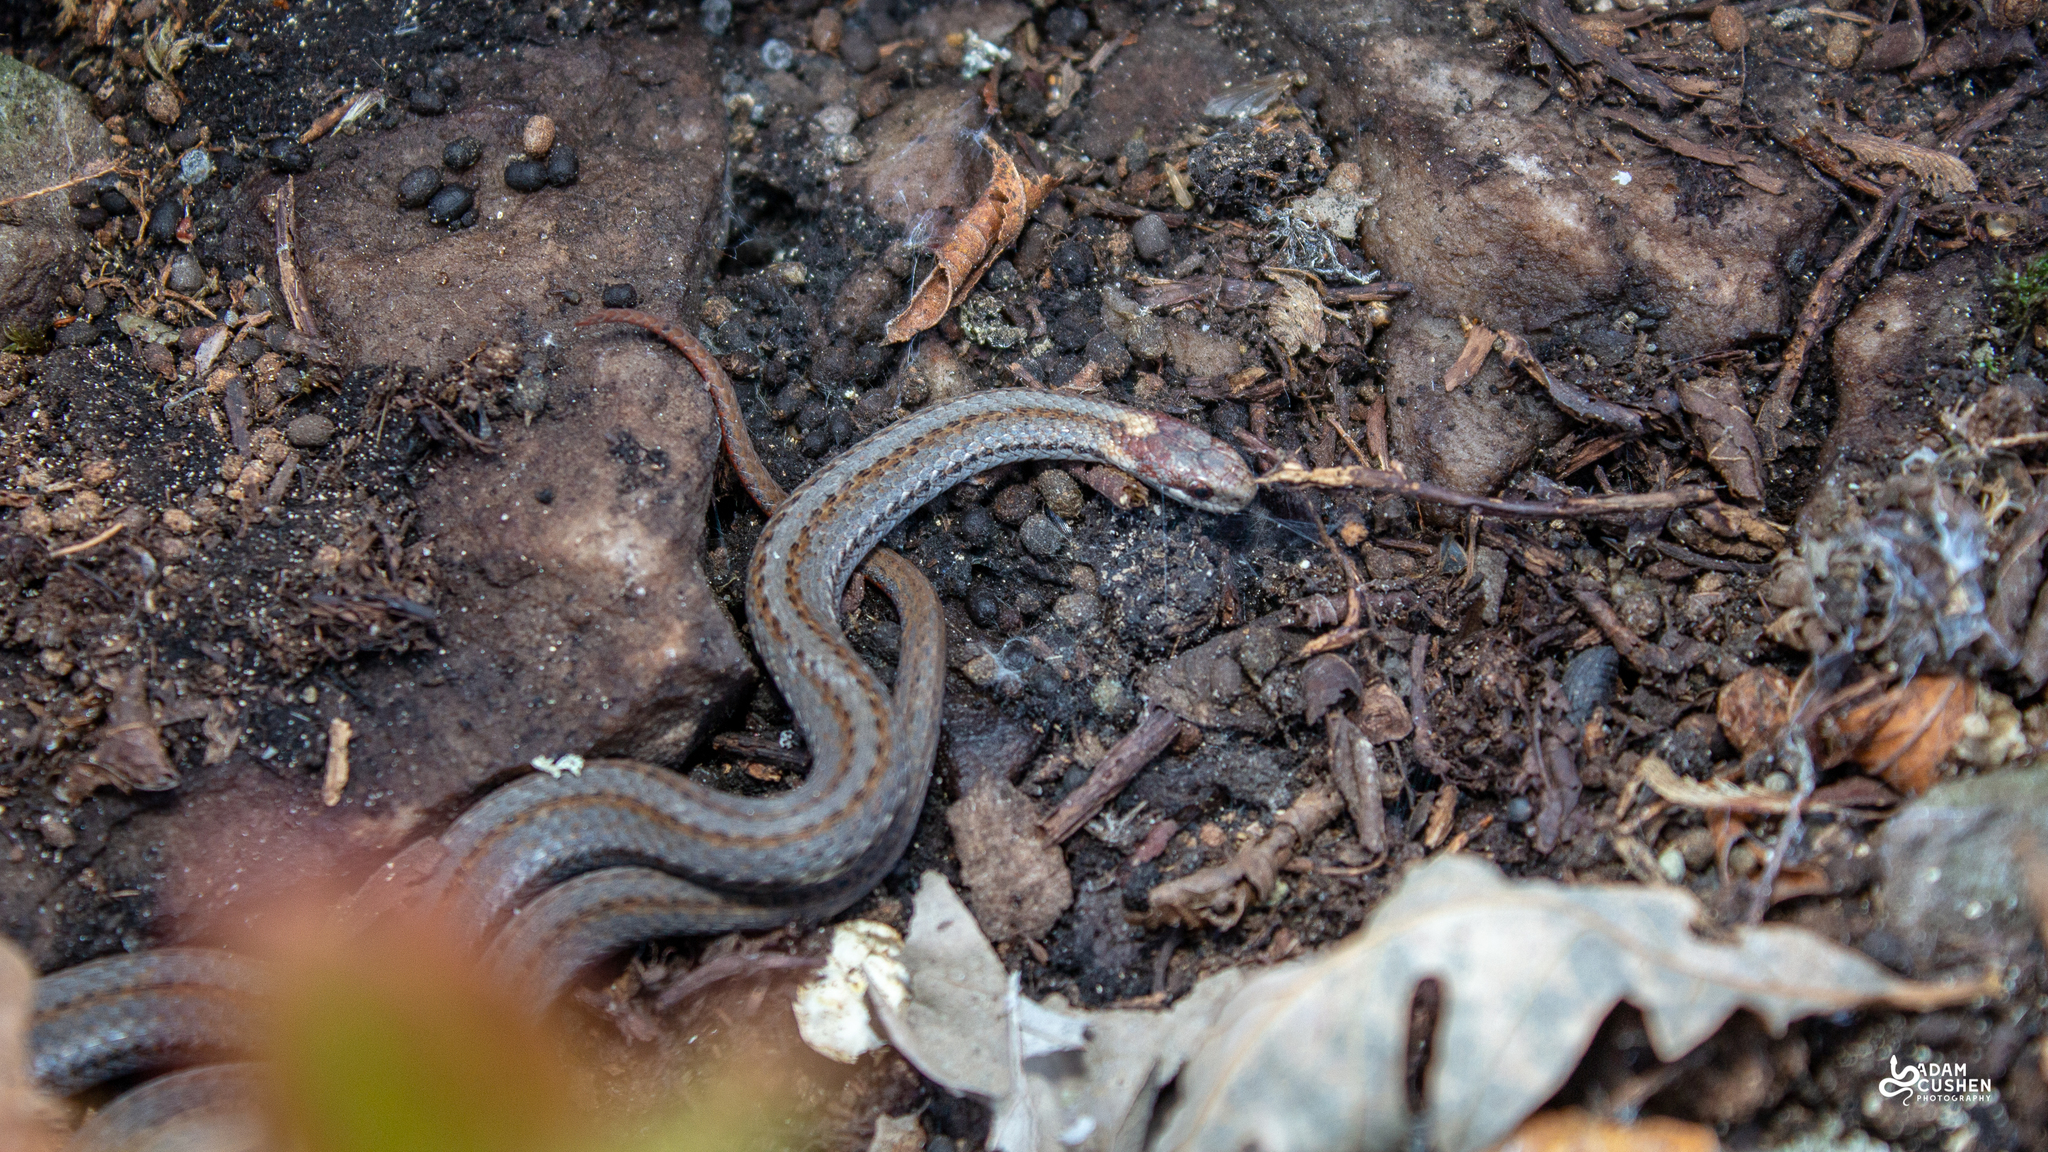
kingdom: Animalia
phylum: Chordata
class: Squamata
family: Colubridae
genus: Storeria
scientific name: Storeria occipitomaculata
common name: Redbelly snake
